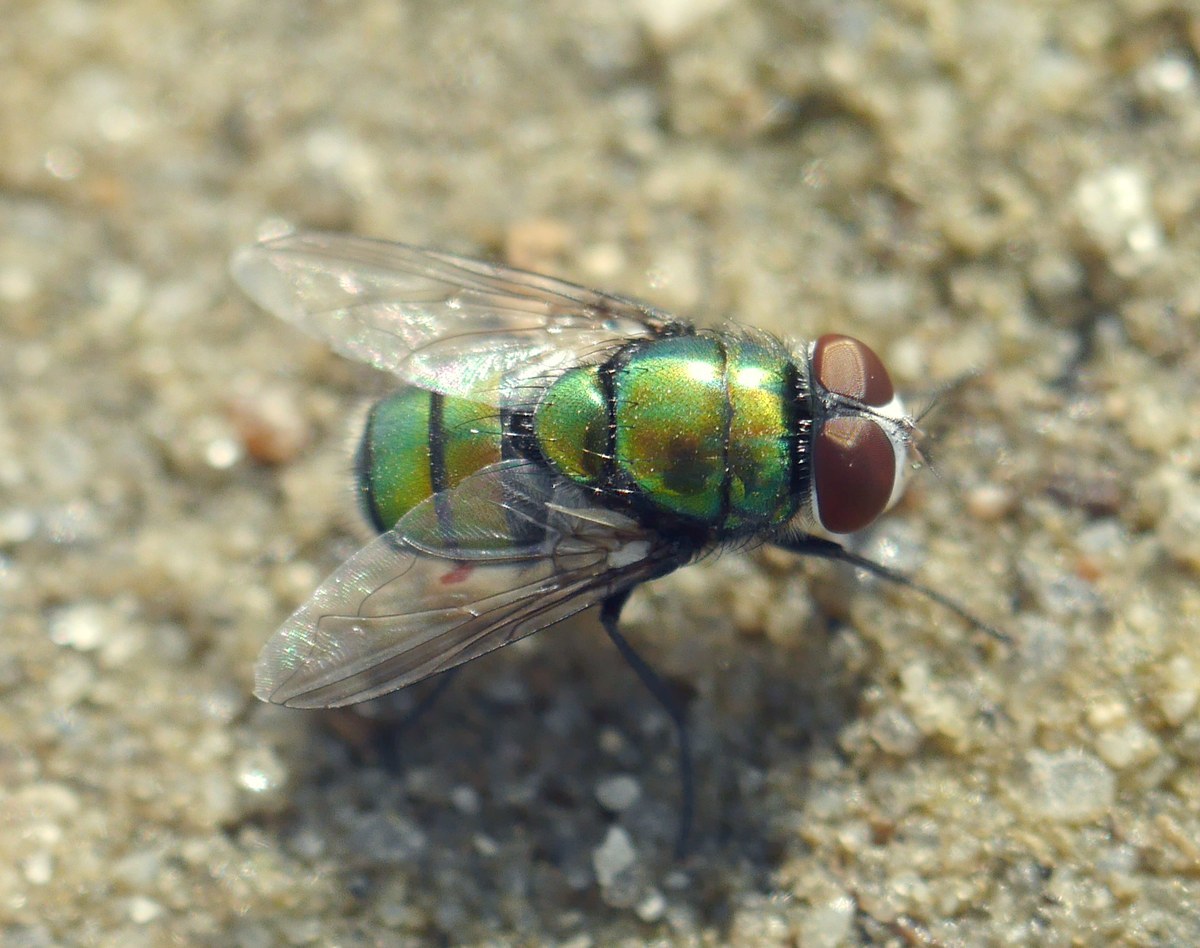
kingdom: Animalia
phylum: Arthropoda
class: Insecta
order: Diptera
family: Calliphoridae
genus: Chrysomya
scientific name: Chrysomya albiceps
